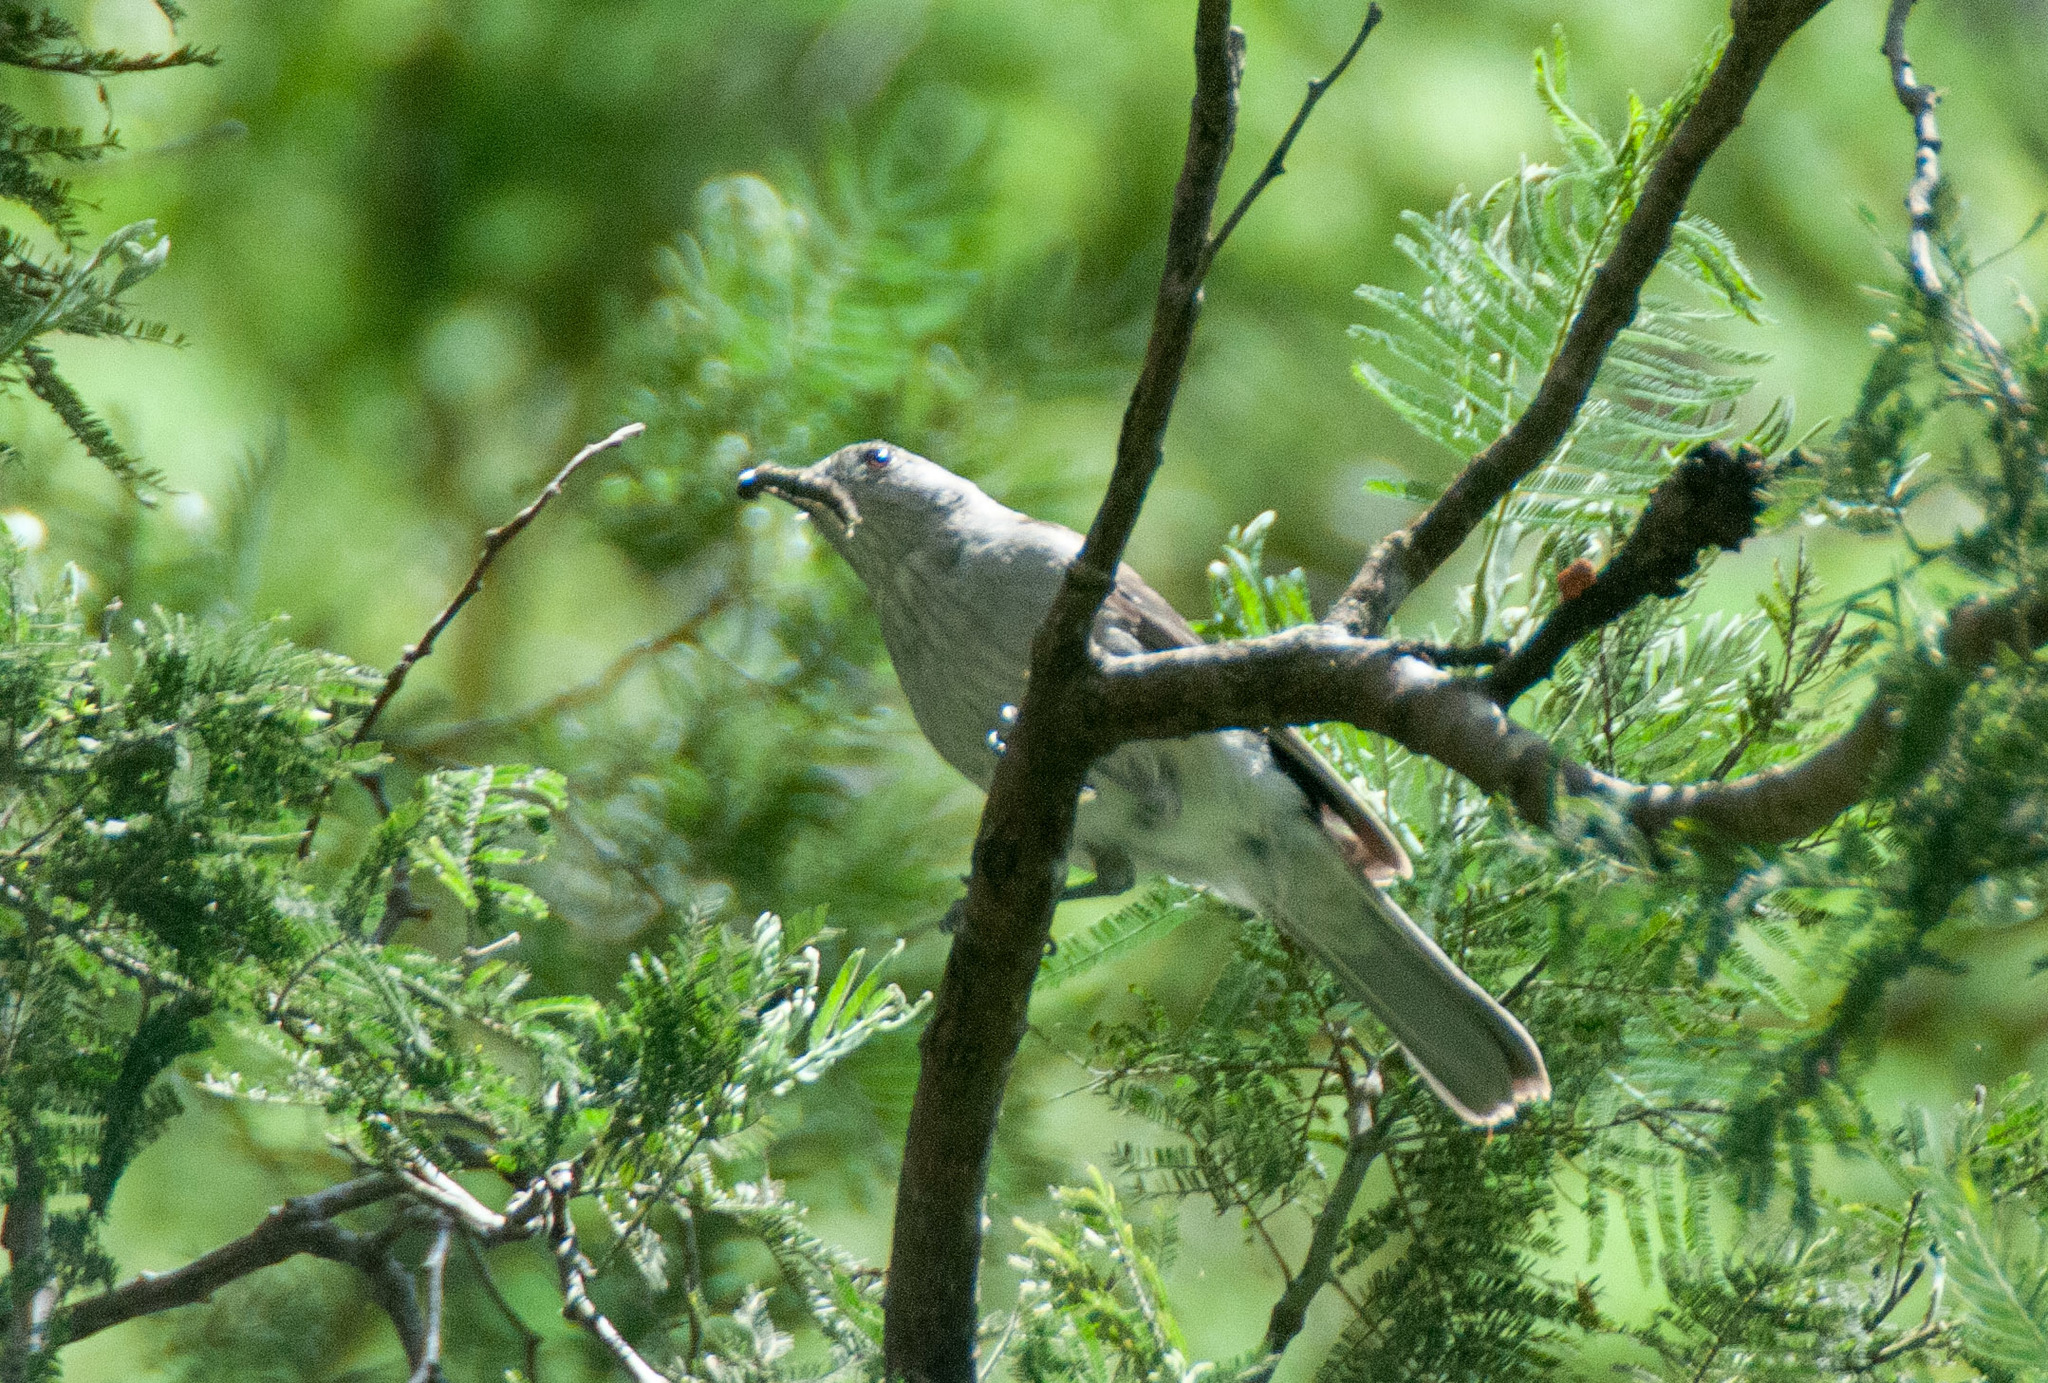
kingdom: Animalia
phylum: Chordata
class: Aves
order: Passeriformes
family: Pachycephalidae
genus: Colluricincla
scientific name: Colluricincla harmonica
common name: Grey shrikethrush
